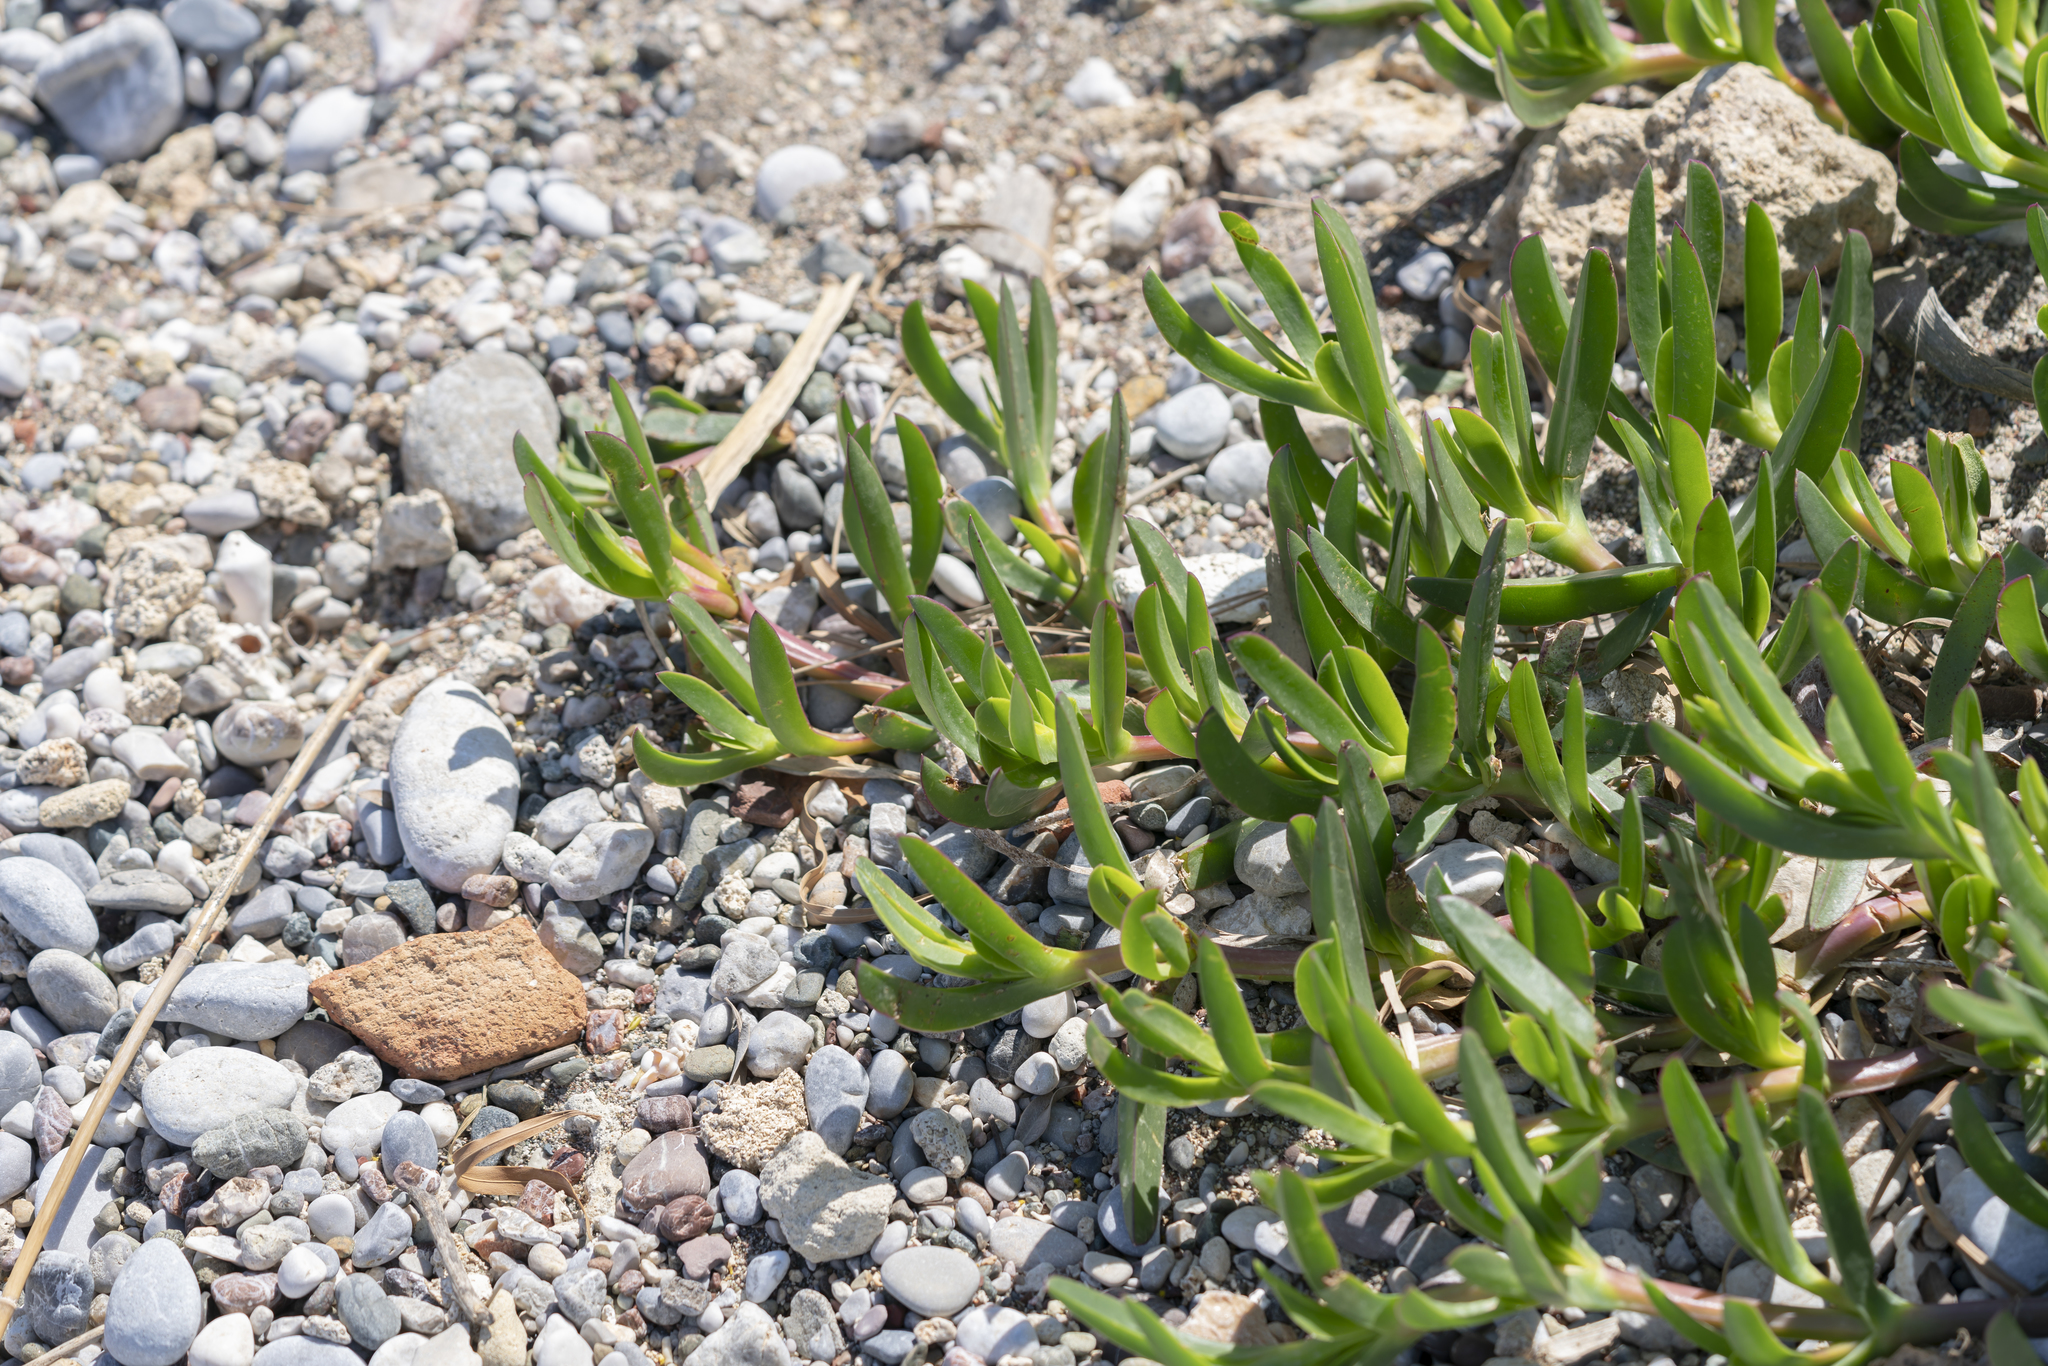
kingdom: Plantae
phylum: Tracheophyta
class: Magnoliopsida
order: Caryophyllales
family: Aizoaceae
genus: Carpobrotus
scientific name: Carpobrotus acinaciformis
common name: Sally-my-handsome
